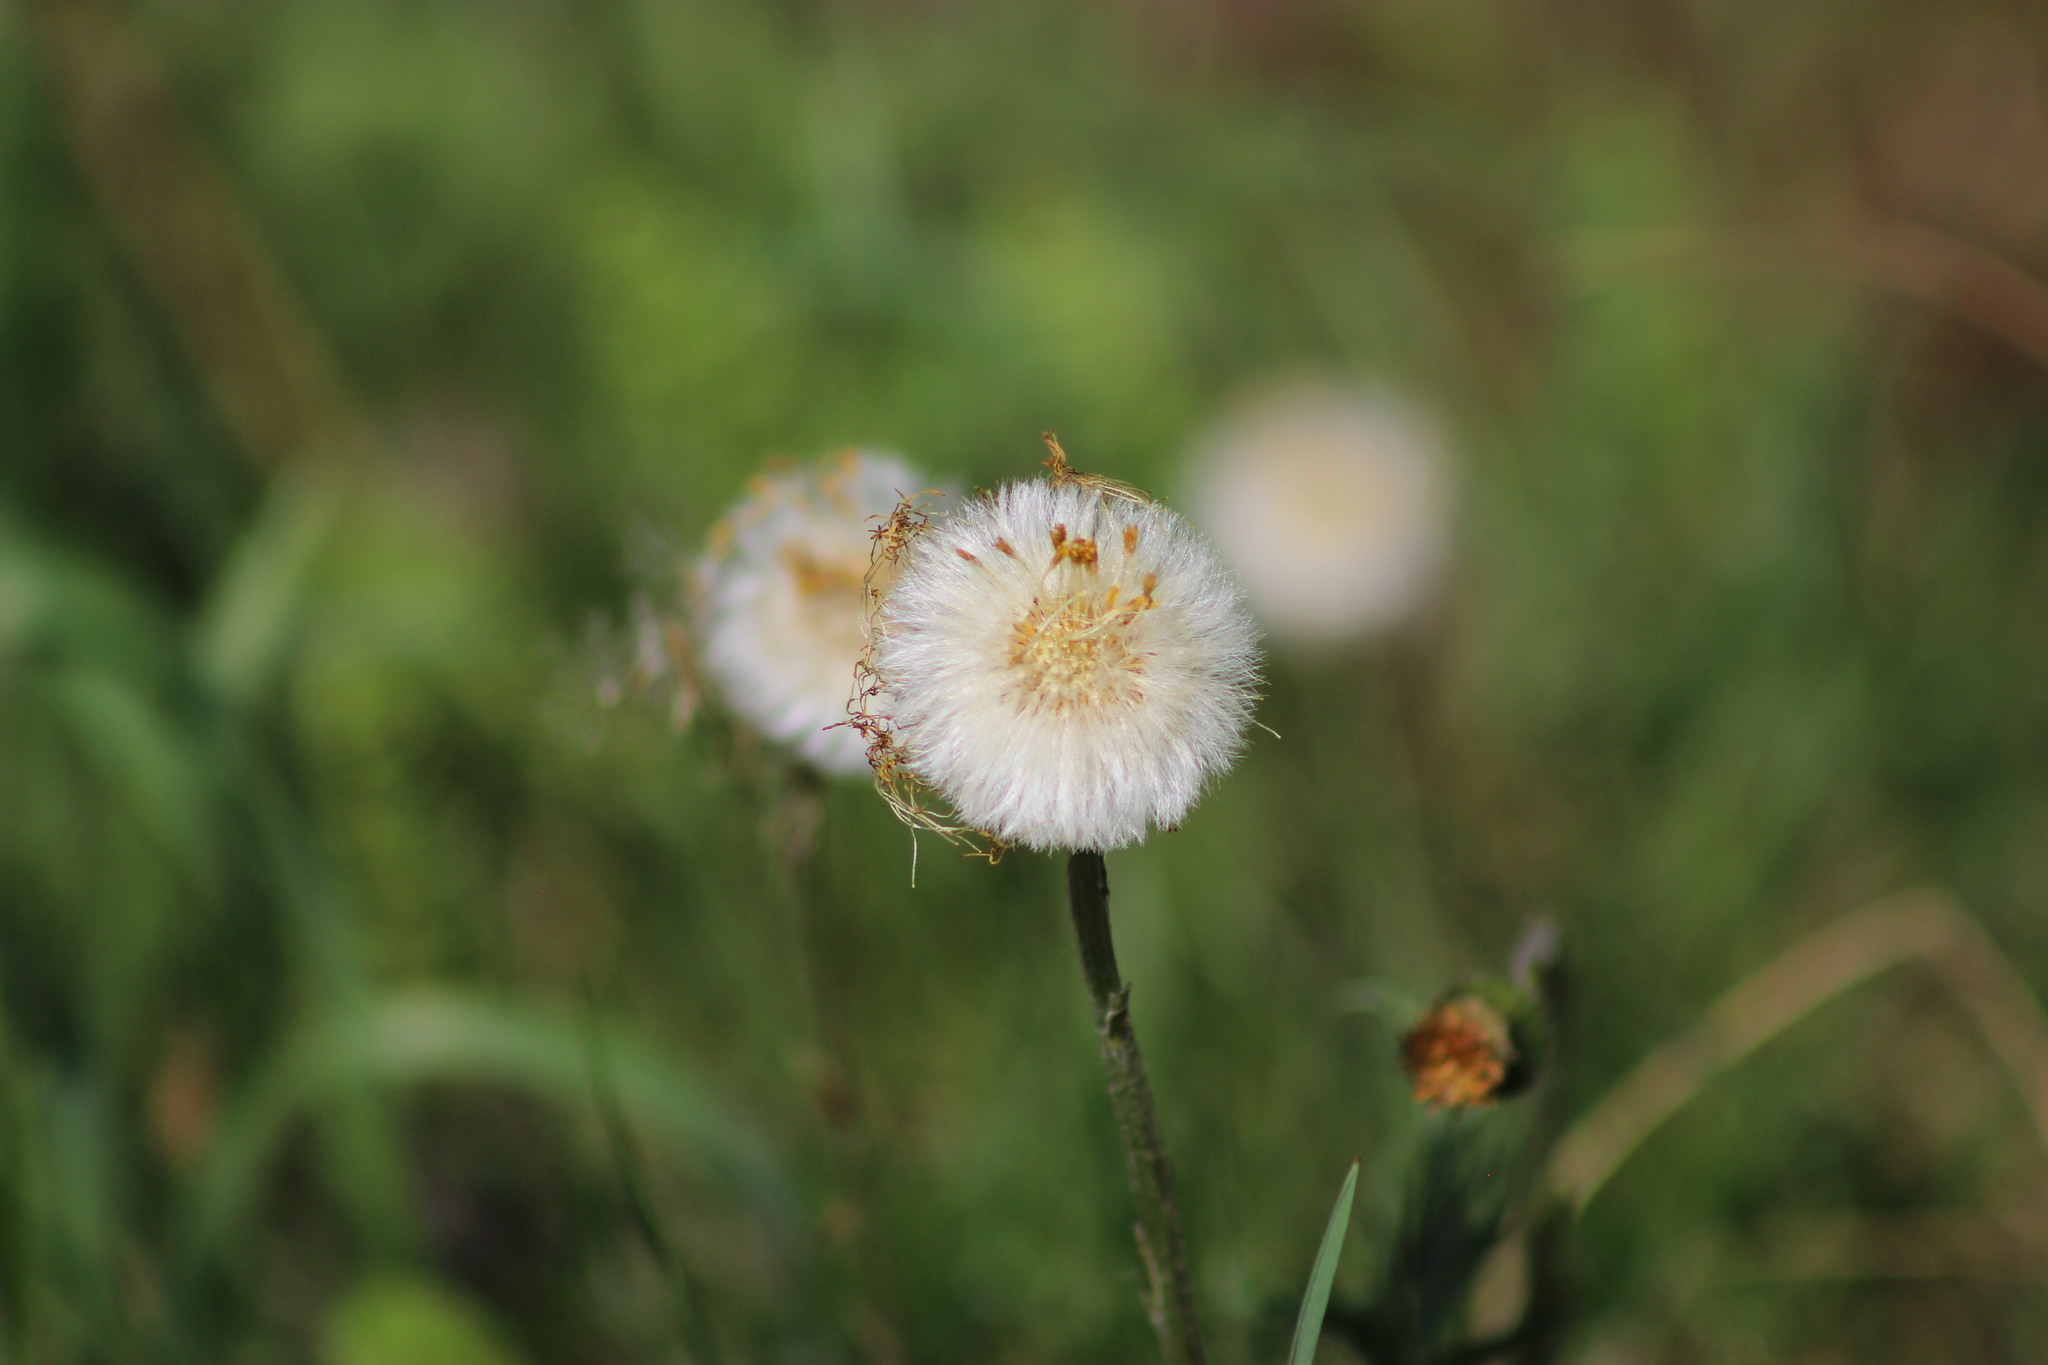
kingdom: Plantae
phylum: Tracheophyta
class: Magnoliopsida
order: Asterales
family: Asteraceae
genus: Tussilago
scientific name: Tussilago farfara
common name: Coltsfoot
